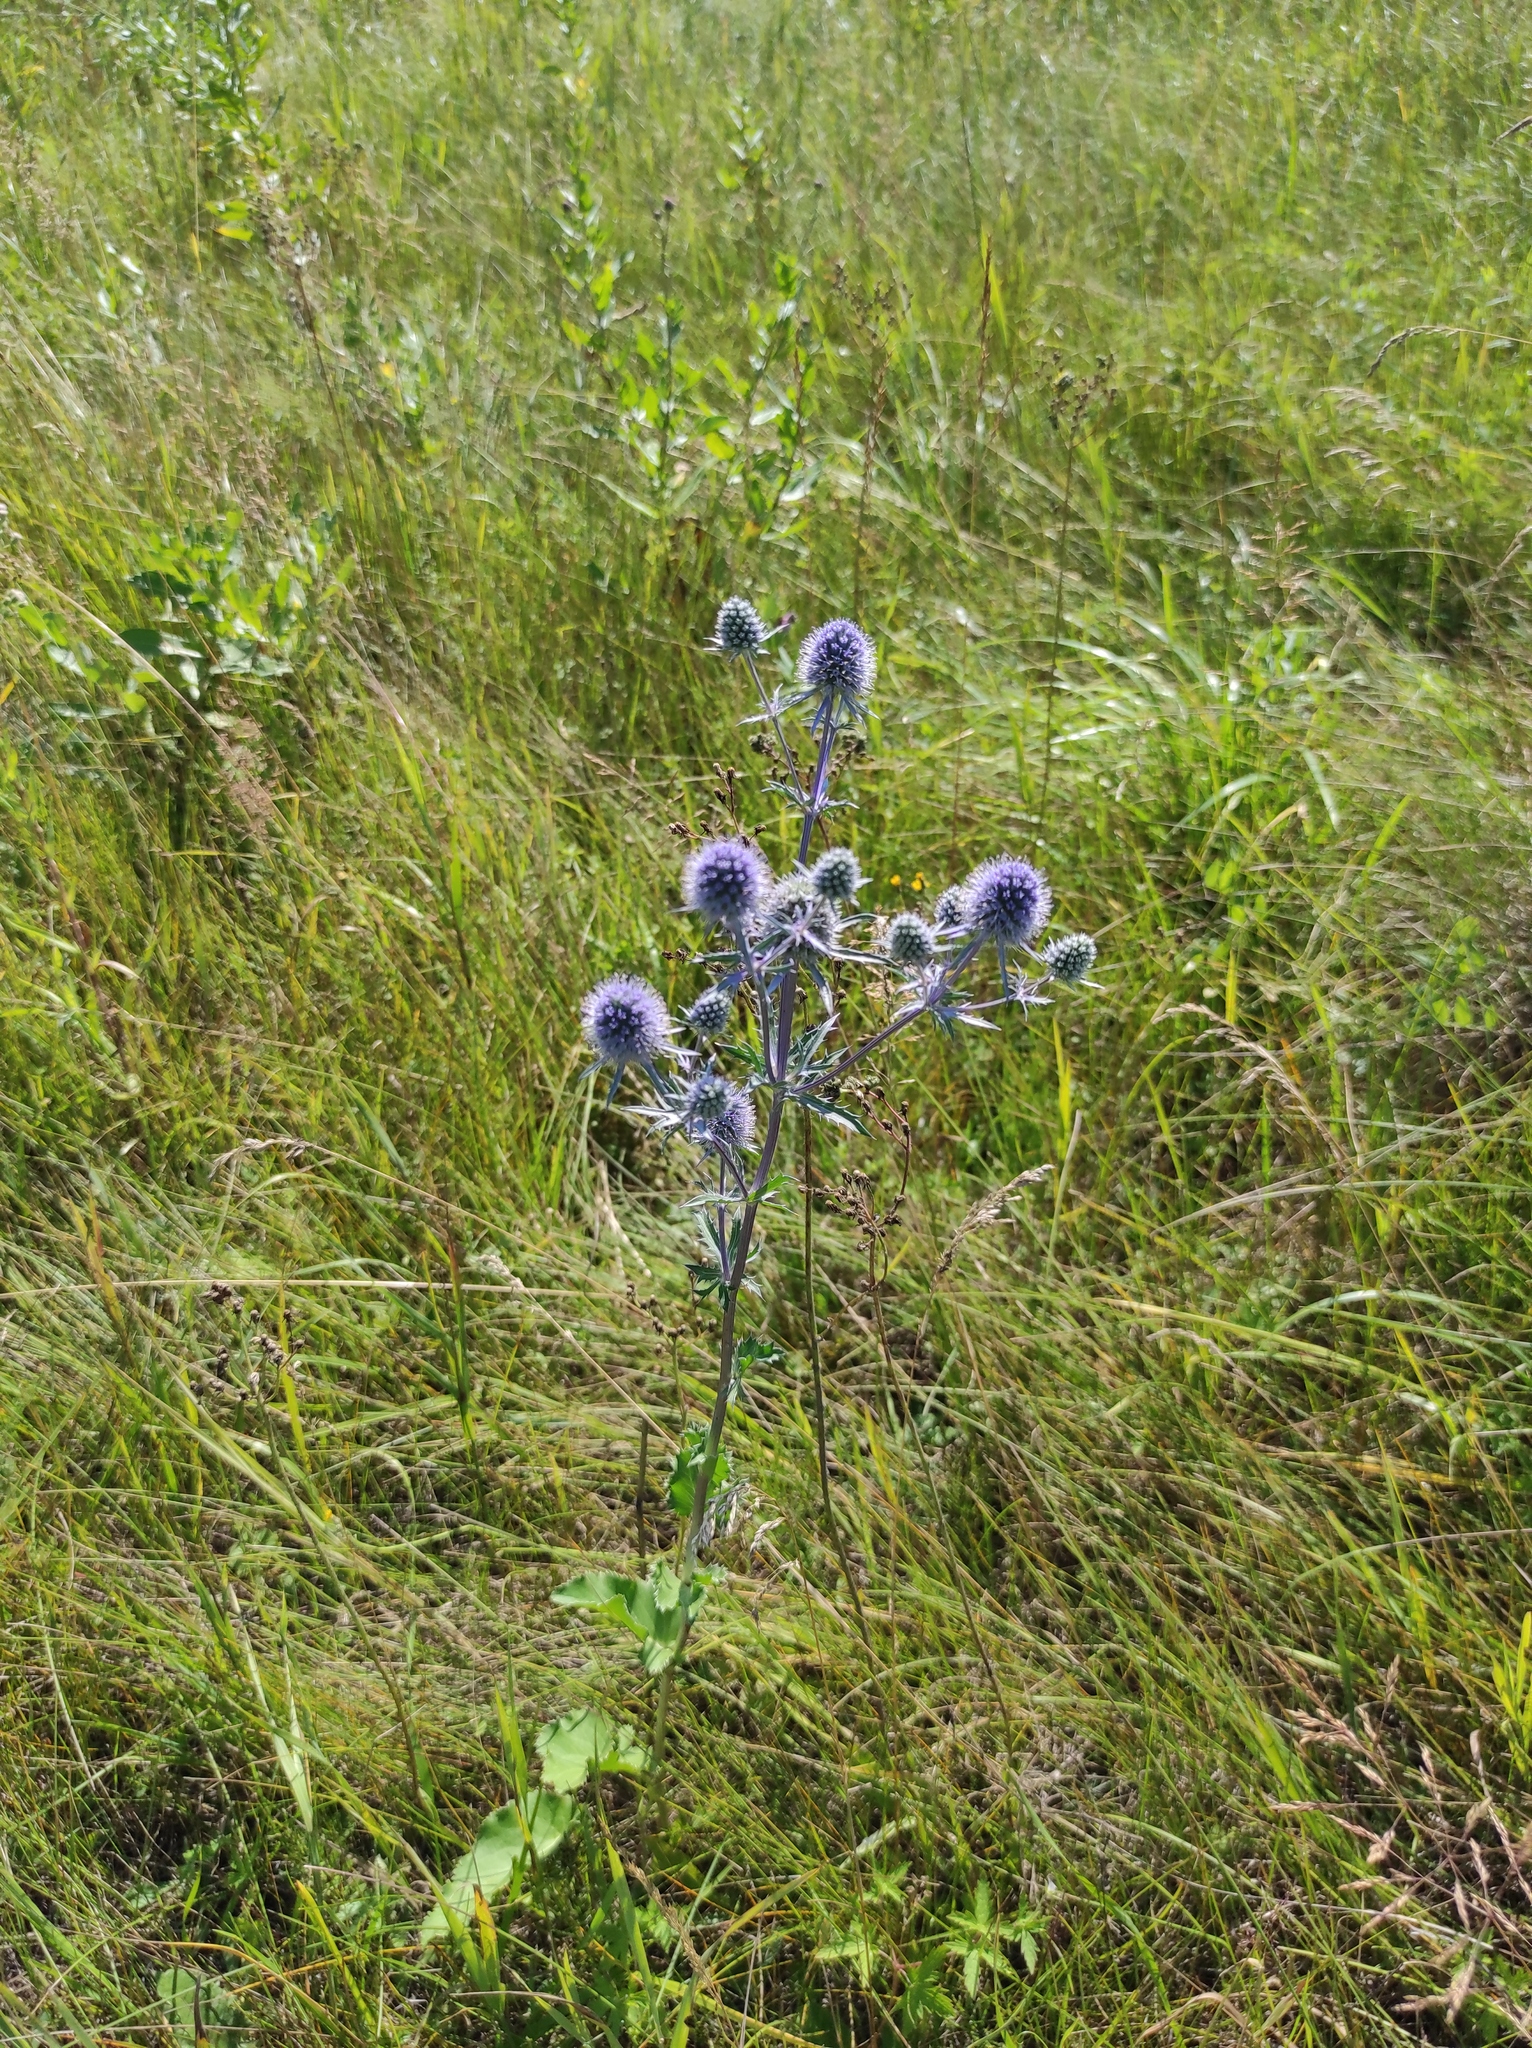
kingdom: Plantae
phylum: Tracheophyta
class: Magnoliopsida
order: Apiales
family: Apiaceae
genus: Eryngium
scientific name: Eryngium planum
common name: Blue eryngo
